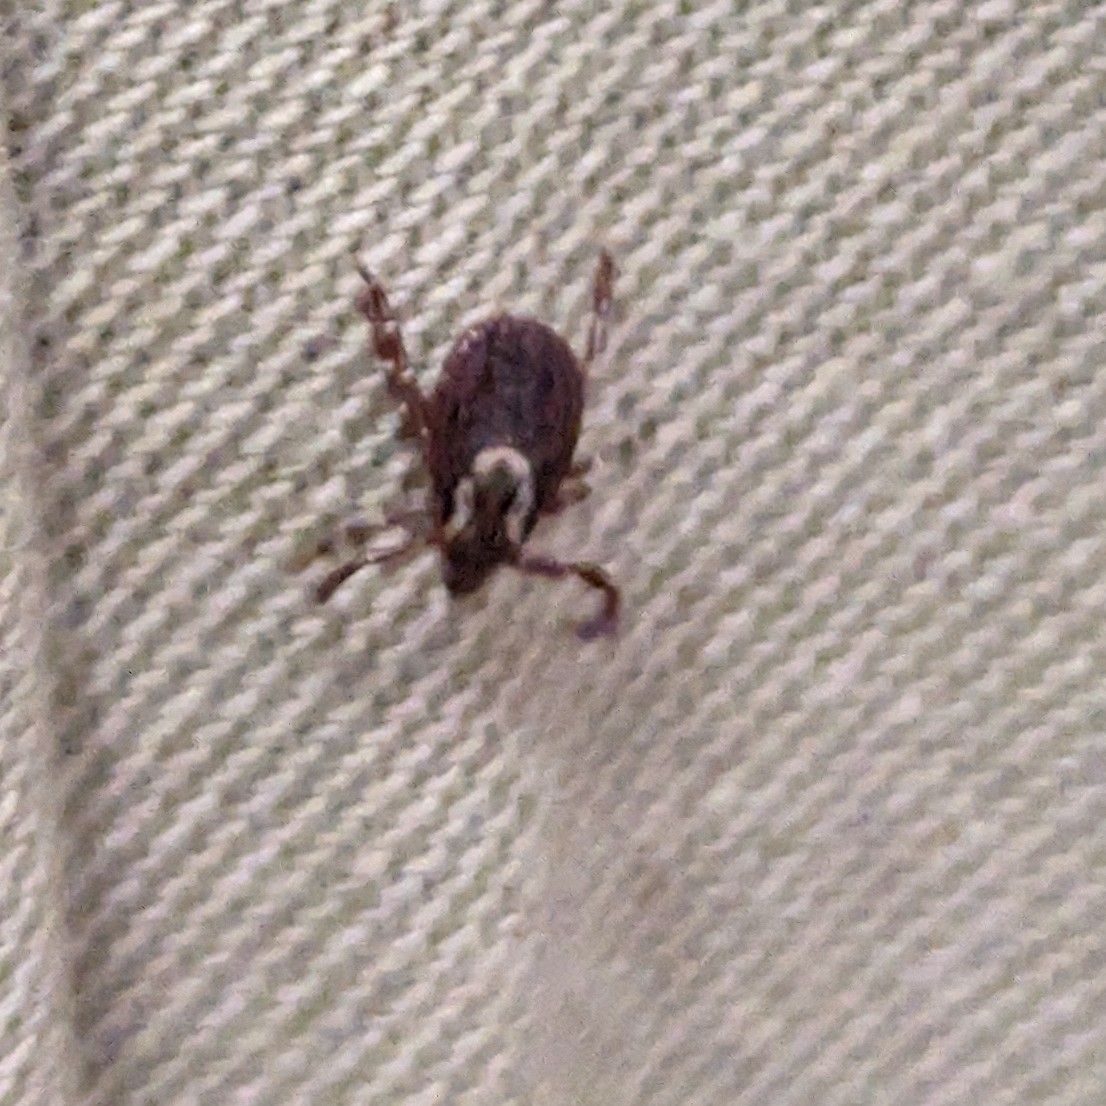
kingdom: Animalia
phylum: Arthropoda
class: Arachnida
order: Ixodida
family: Ixodidae
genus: Dermacentor
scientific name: Dermacentor variabilis
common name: American dog tick
